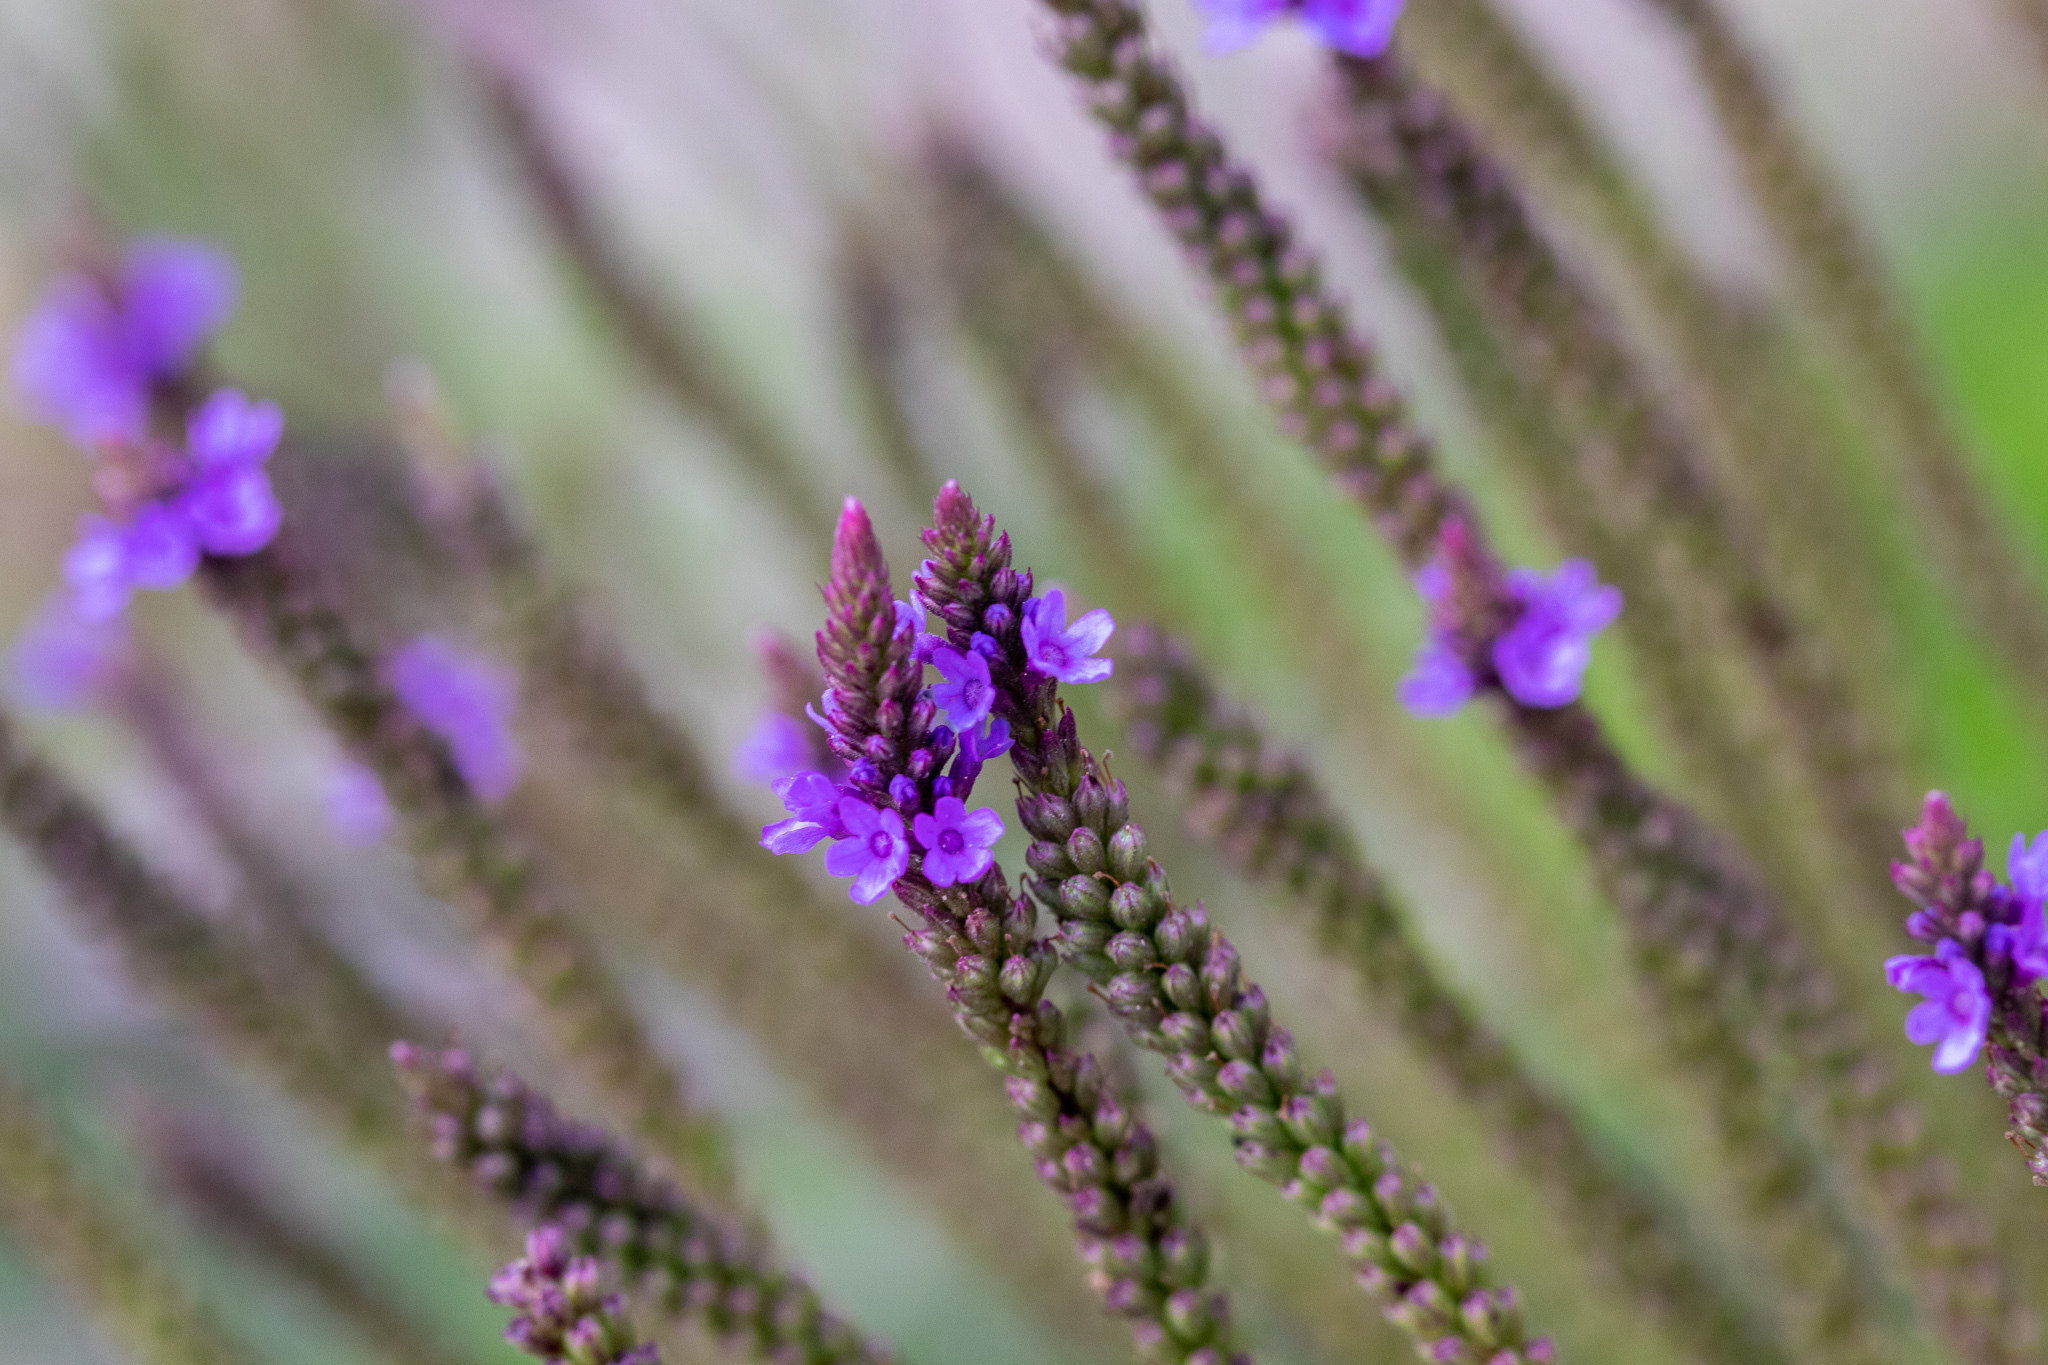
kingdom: Plantae
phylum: Tracheophyta
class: Magnoliopsida
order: Lamiales
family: Verbenaceae
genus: Verbena
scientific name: Verbena hastata
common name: American blue vervain
